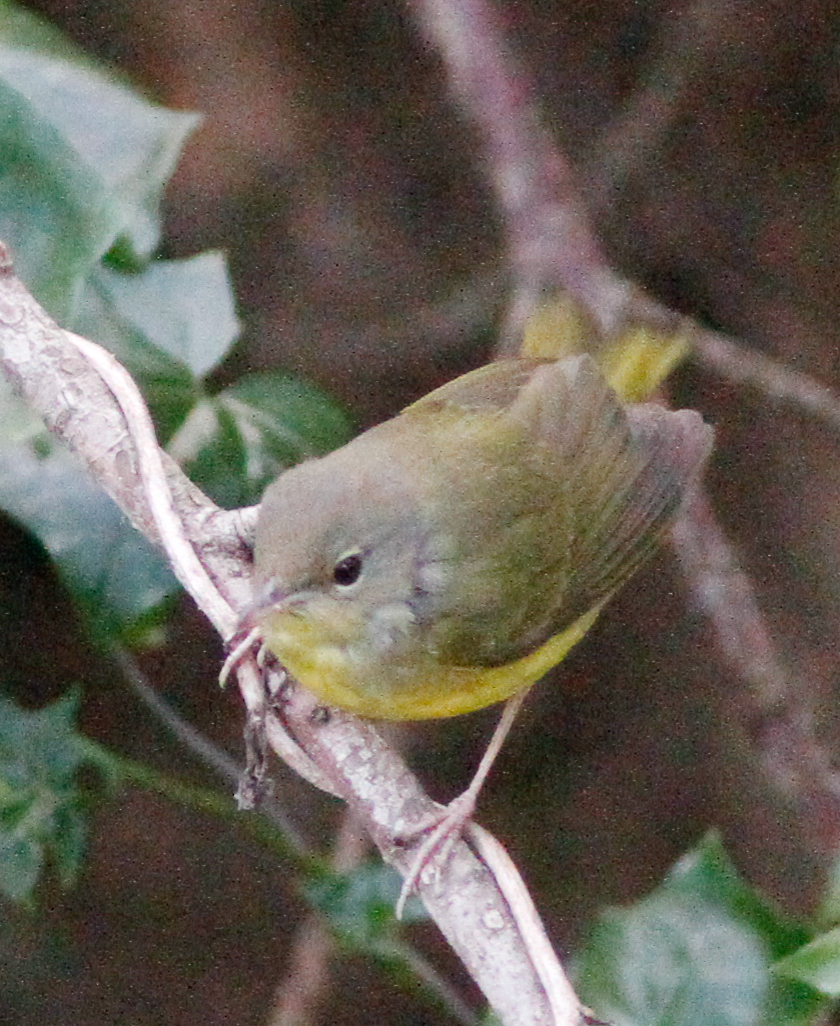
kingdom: Animalia
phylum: Chordata
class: Aves
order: Passeriformes
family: Parulidae
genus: Geothlypis
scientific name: Geothlypis philadelphia
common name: Mourning warbler
